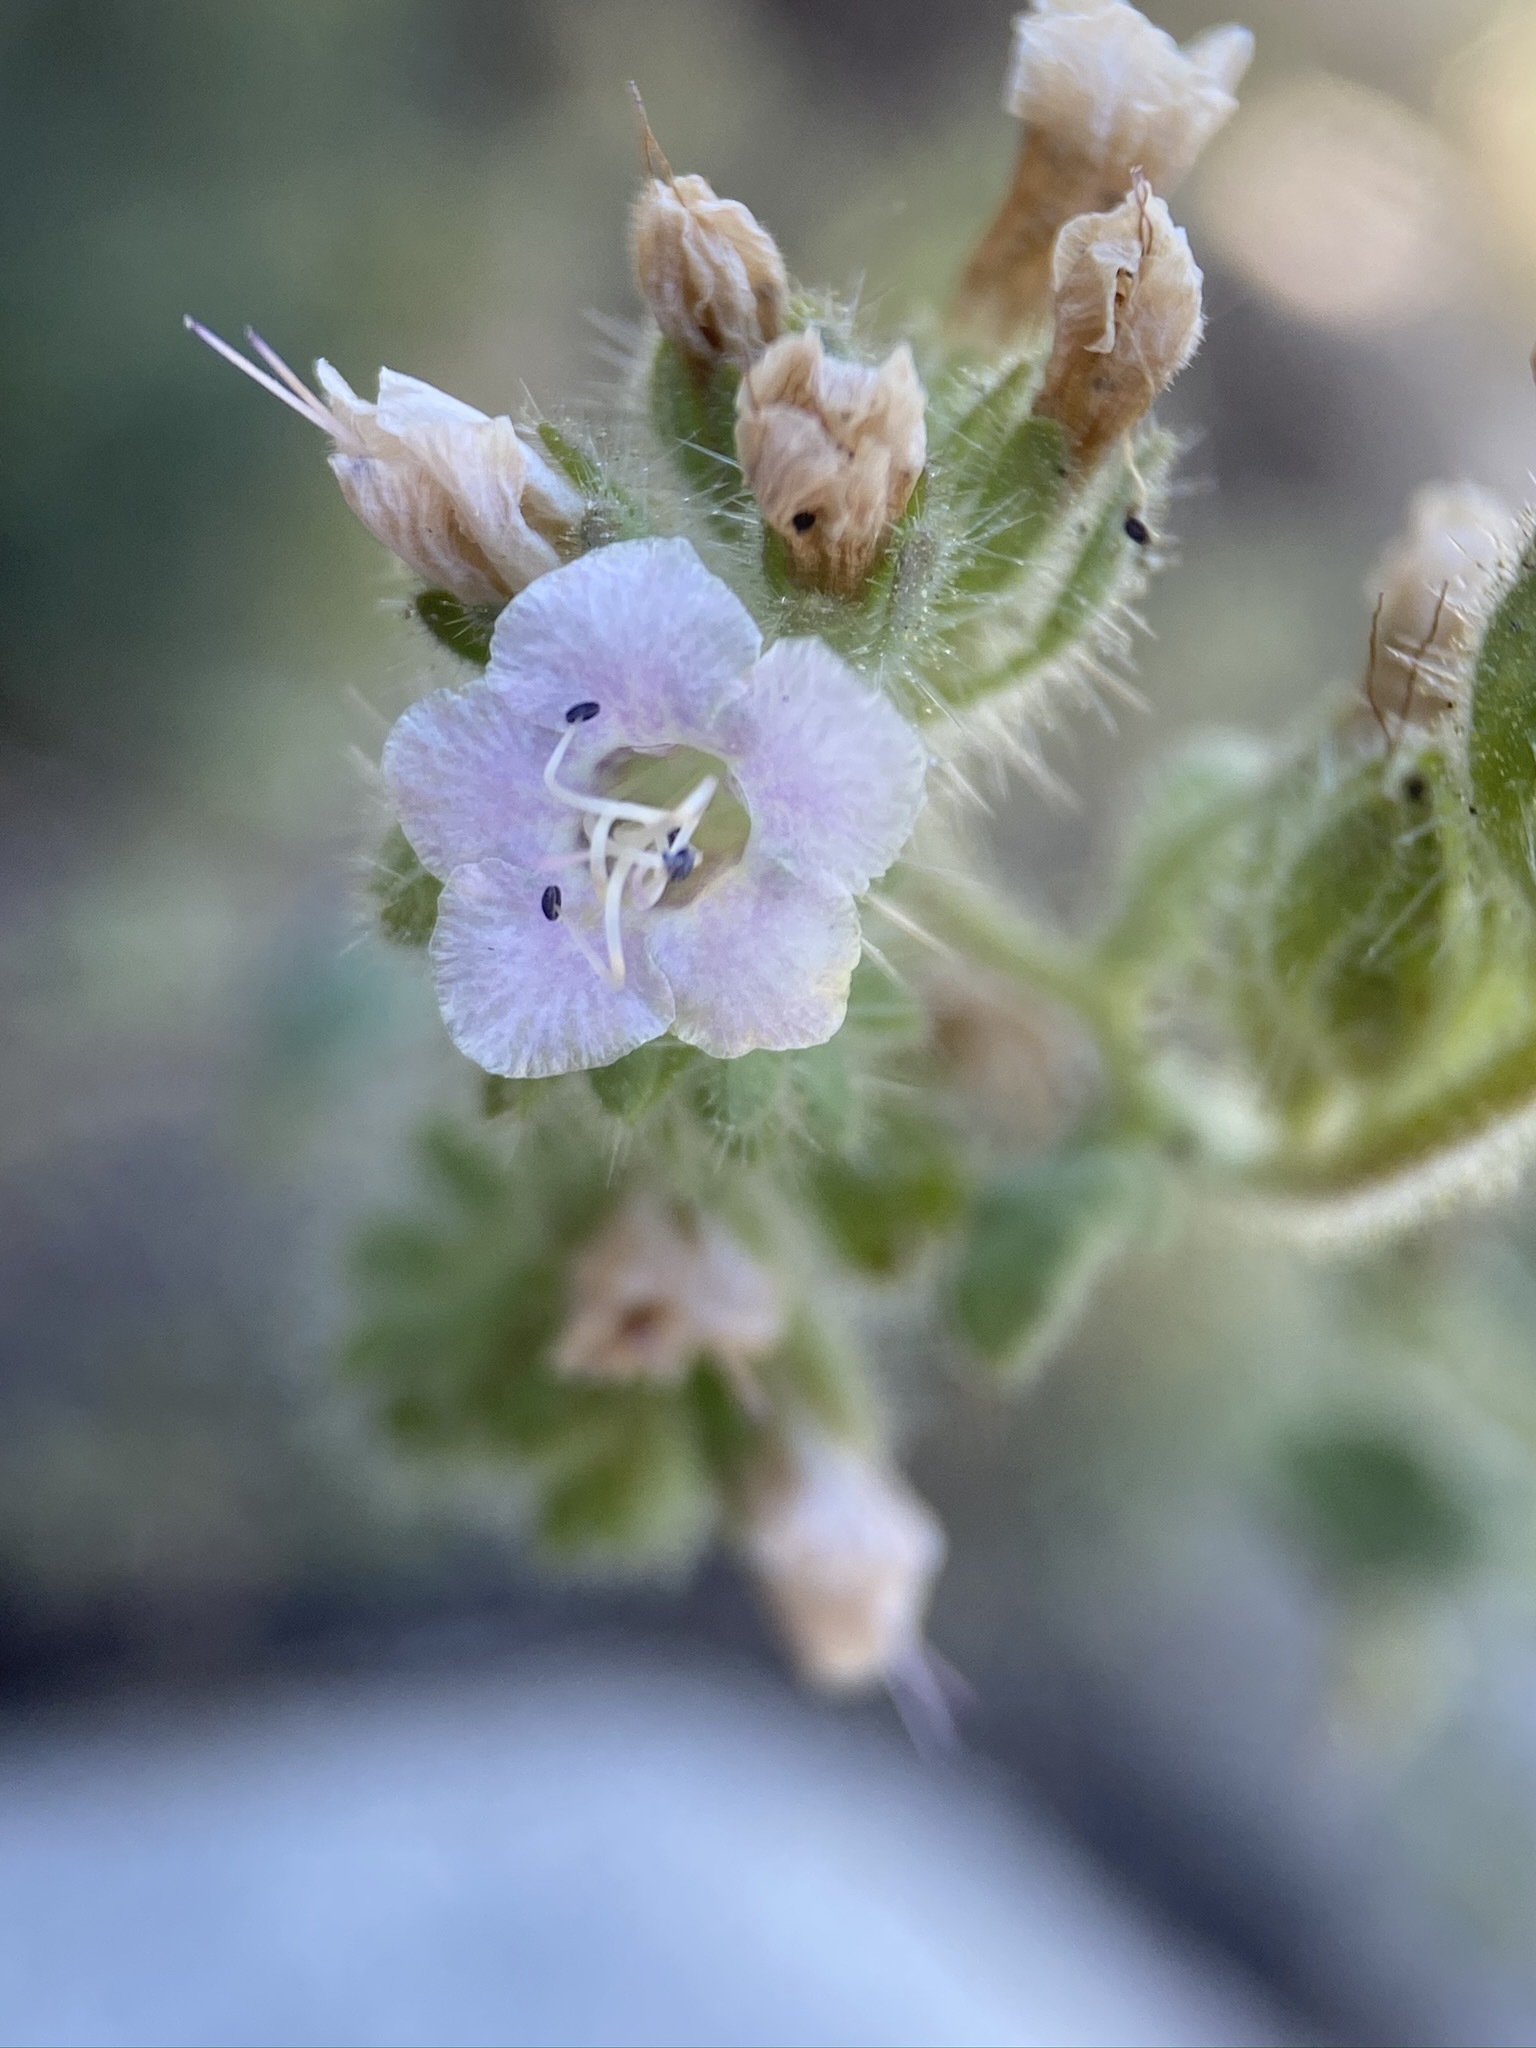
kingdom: Plantae
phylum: Tracheophyta
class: Magnoliopsida
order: Boraginales
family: Hydrophyllaceae
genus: Phacelia
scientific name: Phacelia ramosissima
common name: Branching phacelia
